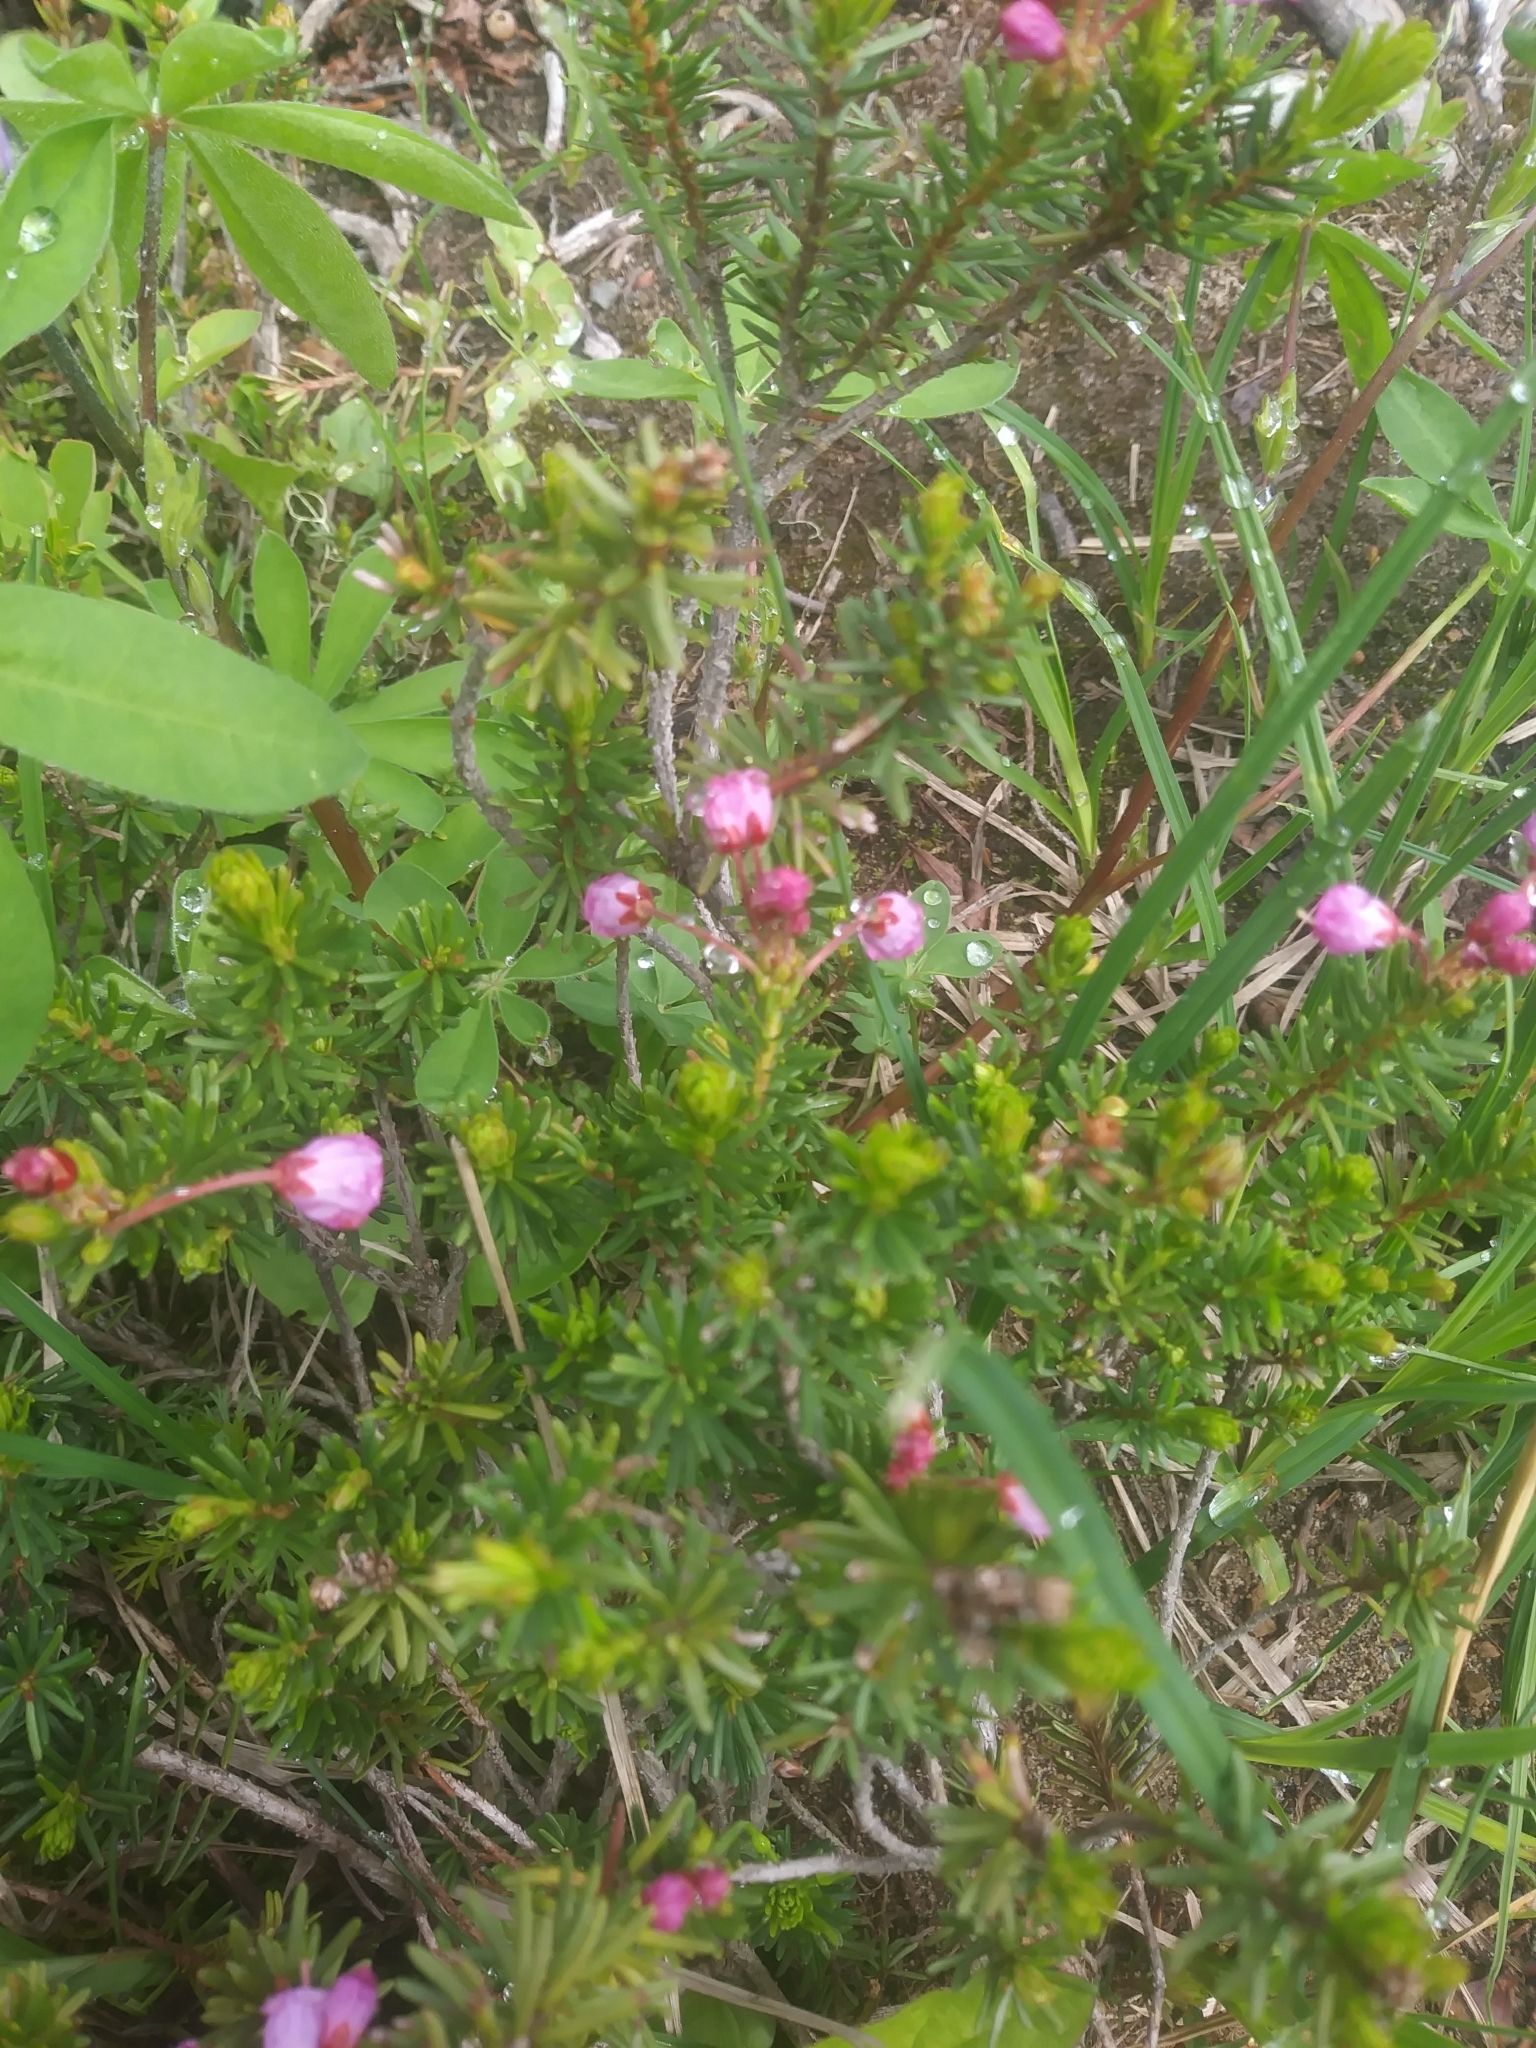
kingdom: Plantae
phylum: Tracheophyta
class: Magnoliopsida
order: Ericales
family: Ericaceae
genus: Phyllodoce
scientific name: Phyllodoce empetriformis
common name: Pink mountain heather
